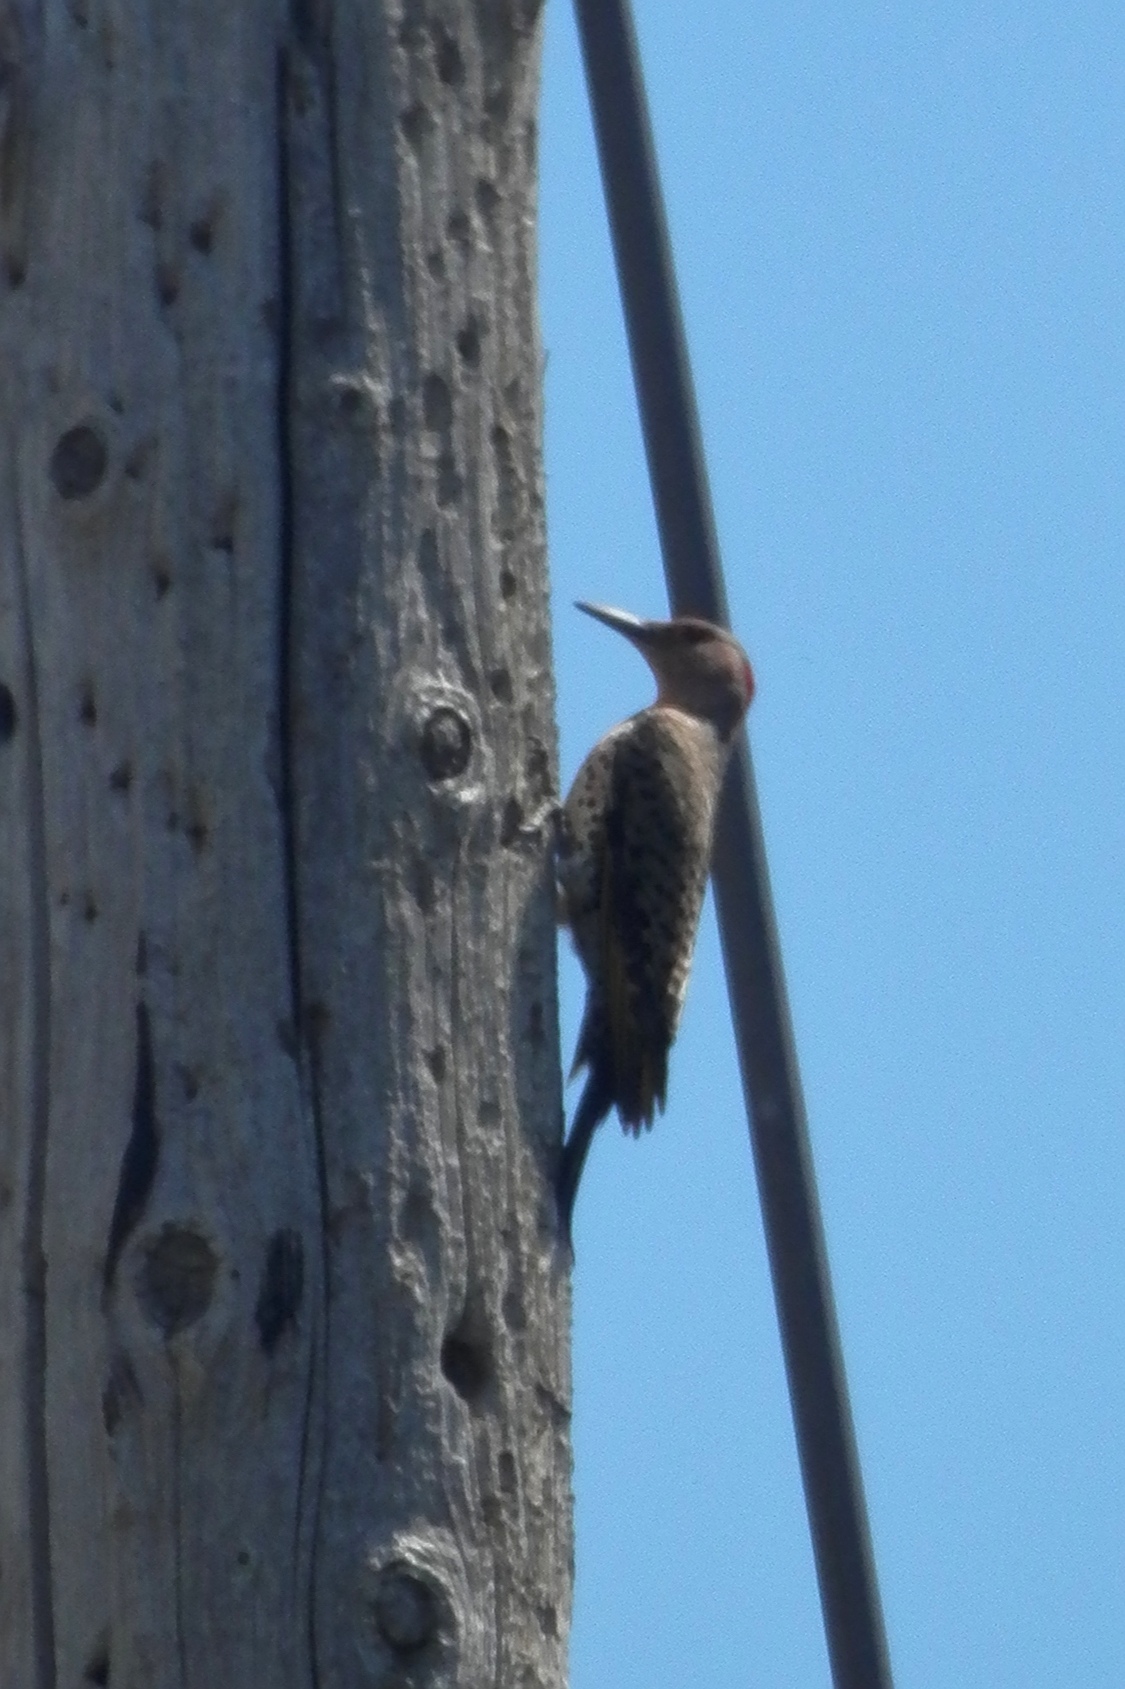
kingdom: Animalia
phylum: Chordata
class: Aves
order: Piciformes
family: Picidae
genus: Colaptes
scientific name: Colaptes auratus
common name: Northern flicker
